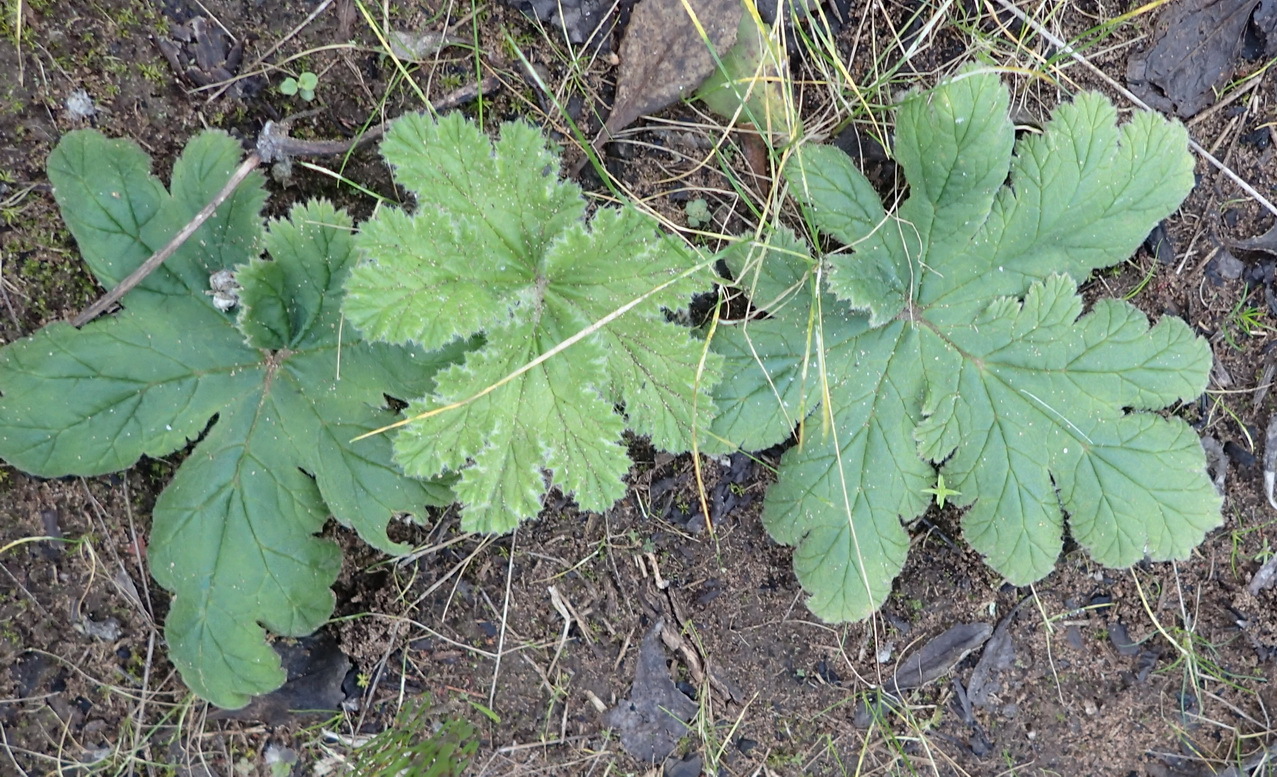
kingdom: Plantae
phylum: Tracheophyta
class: Magnoliopsida
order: Geraniales
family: Geraniaceae
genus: Pelargonium
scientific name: Pelargonium lobatum
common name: Vine-leaf pelargonium
